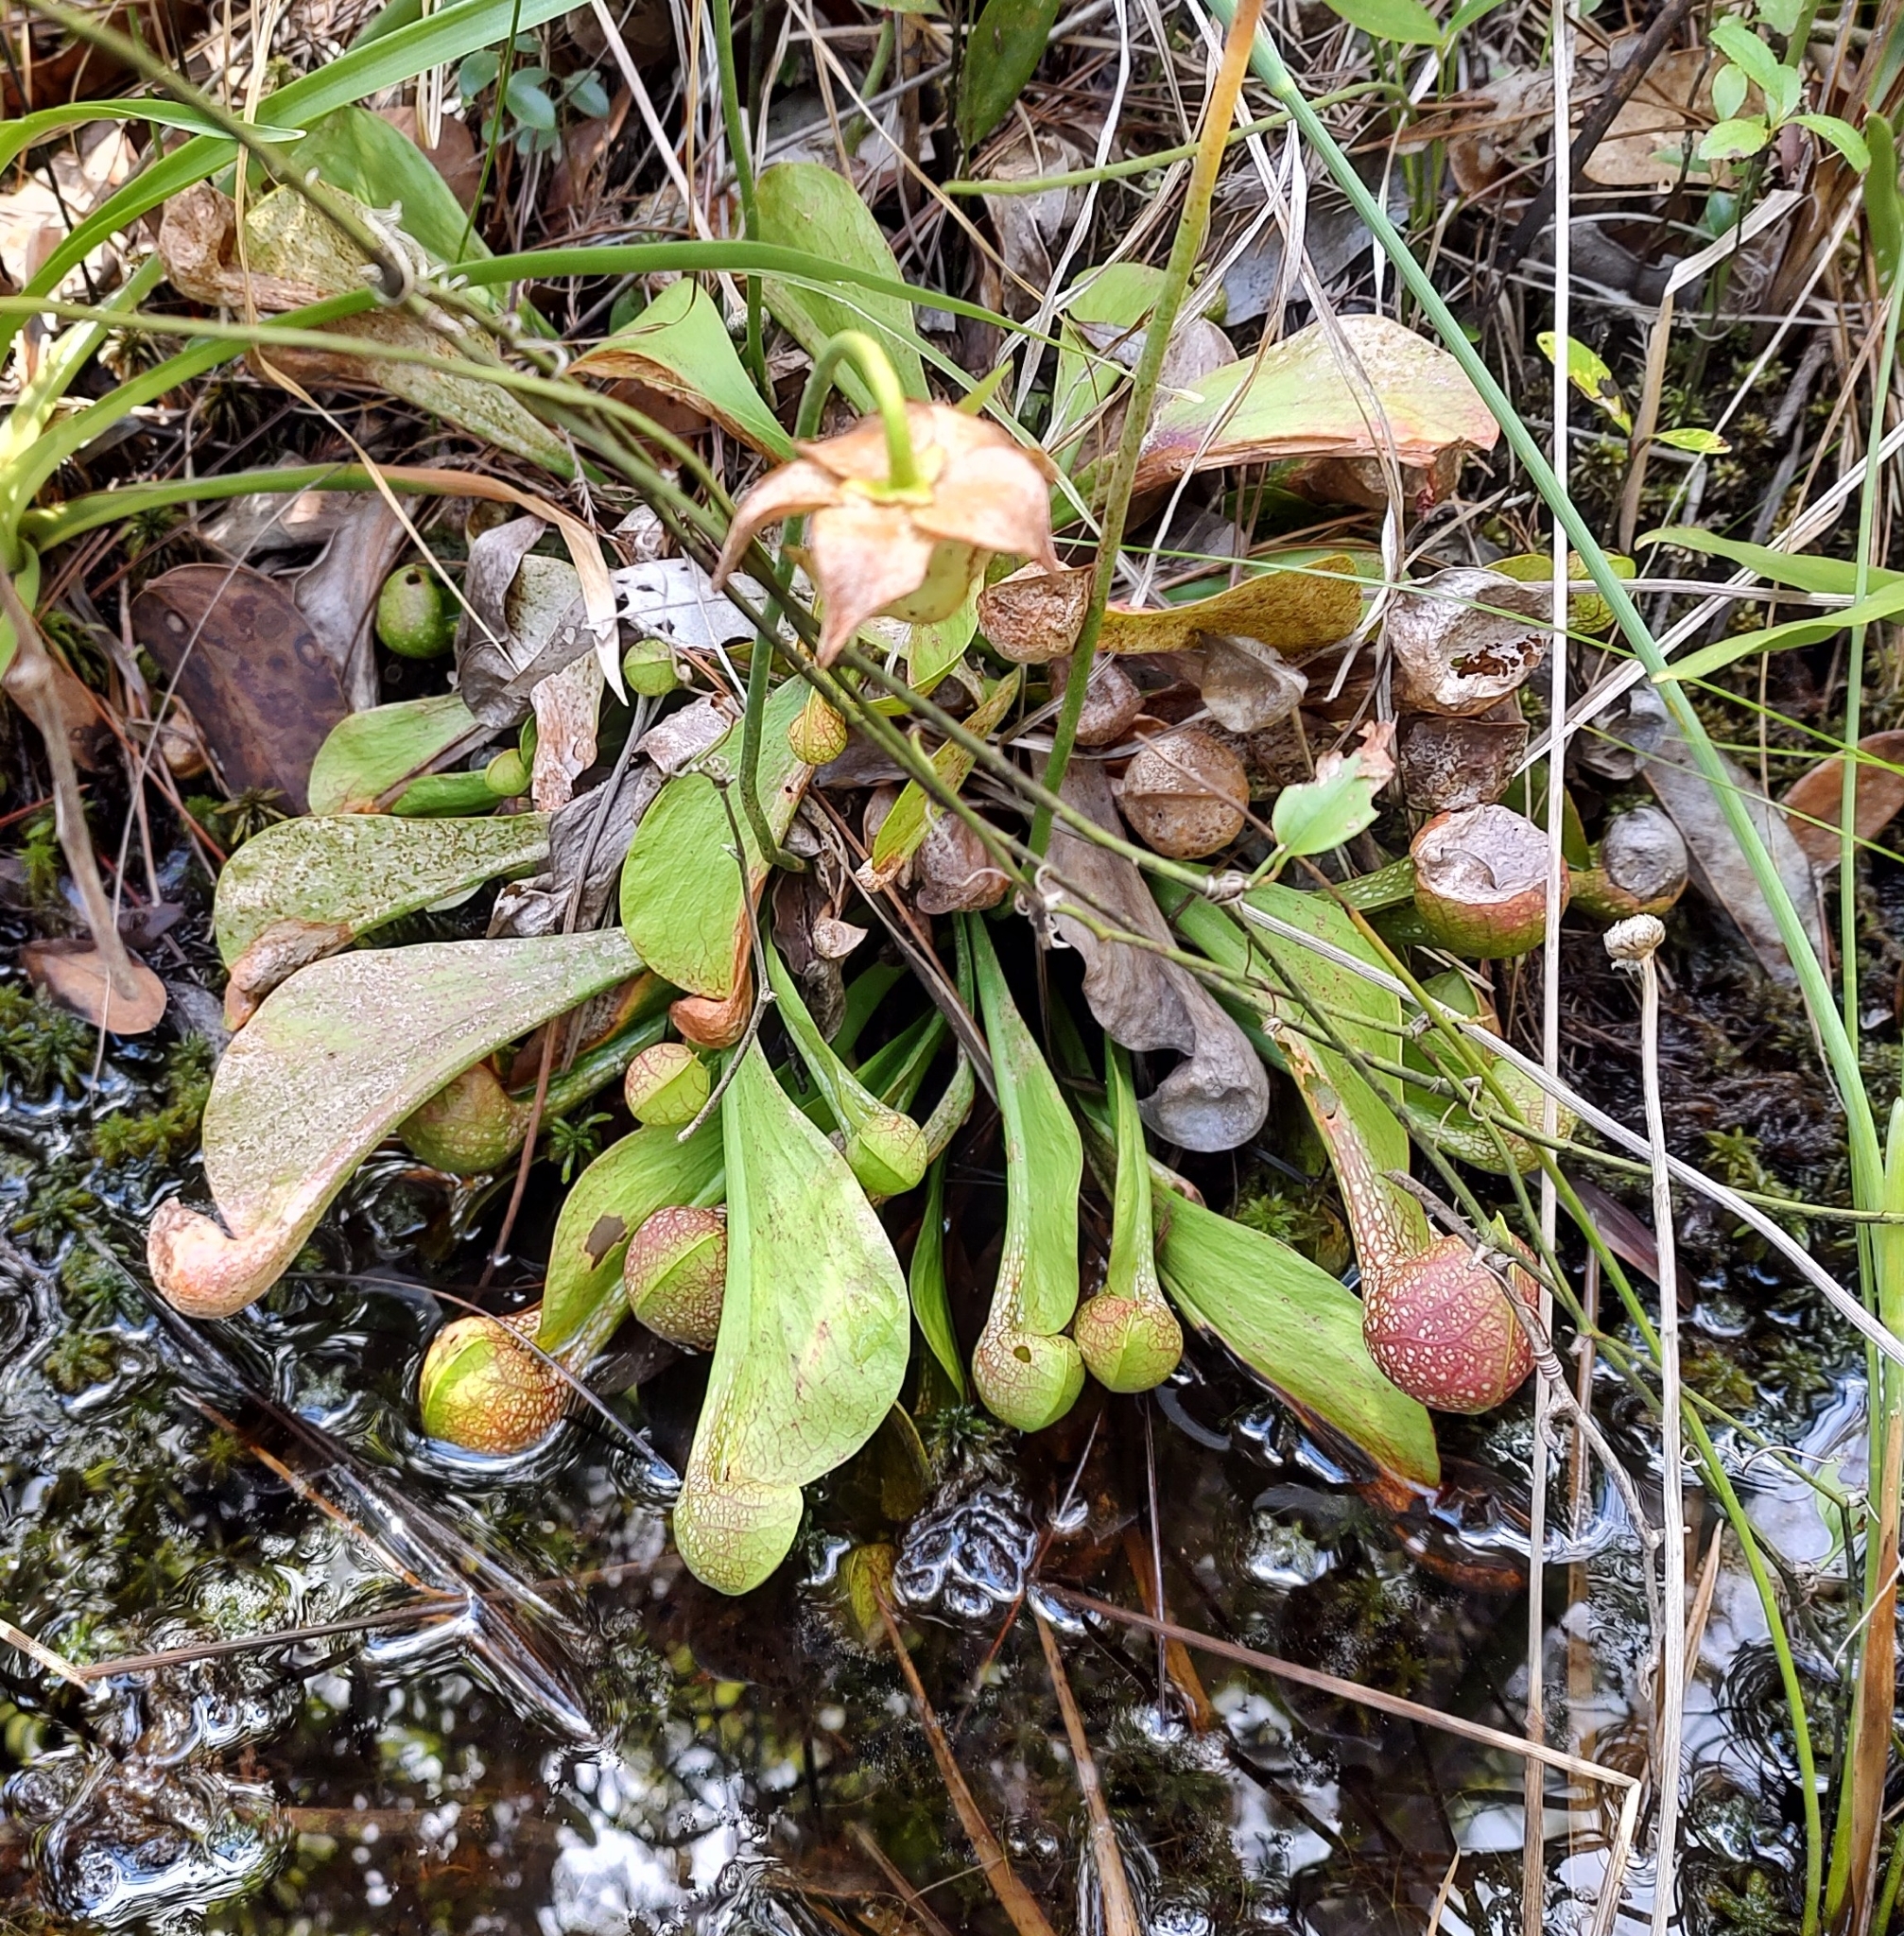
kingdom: Plantae
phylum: Tracheophyta
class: Magnoliopsida
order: Ericales
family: Sarraceniaceae
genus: Sarracenia
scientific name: Sarracenia psittacina
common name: Parrot pitcherplant
